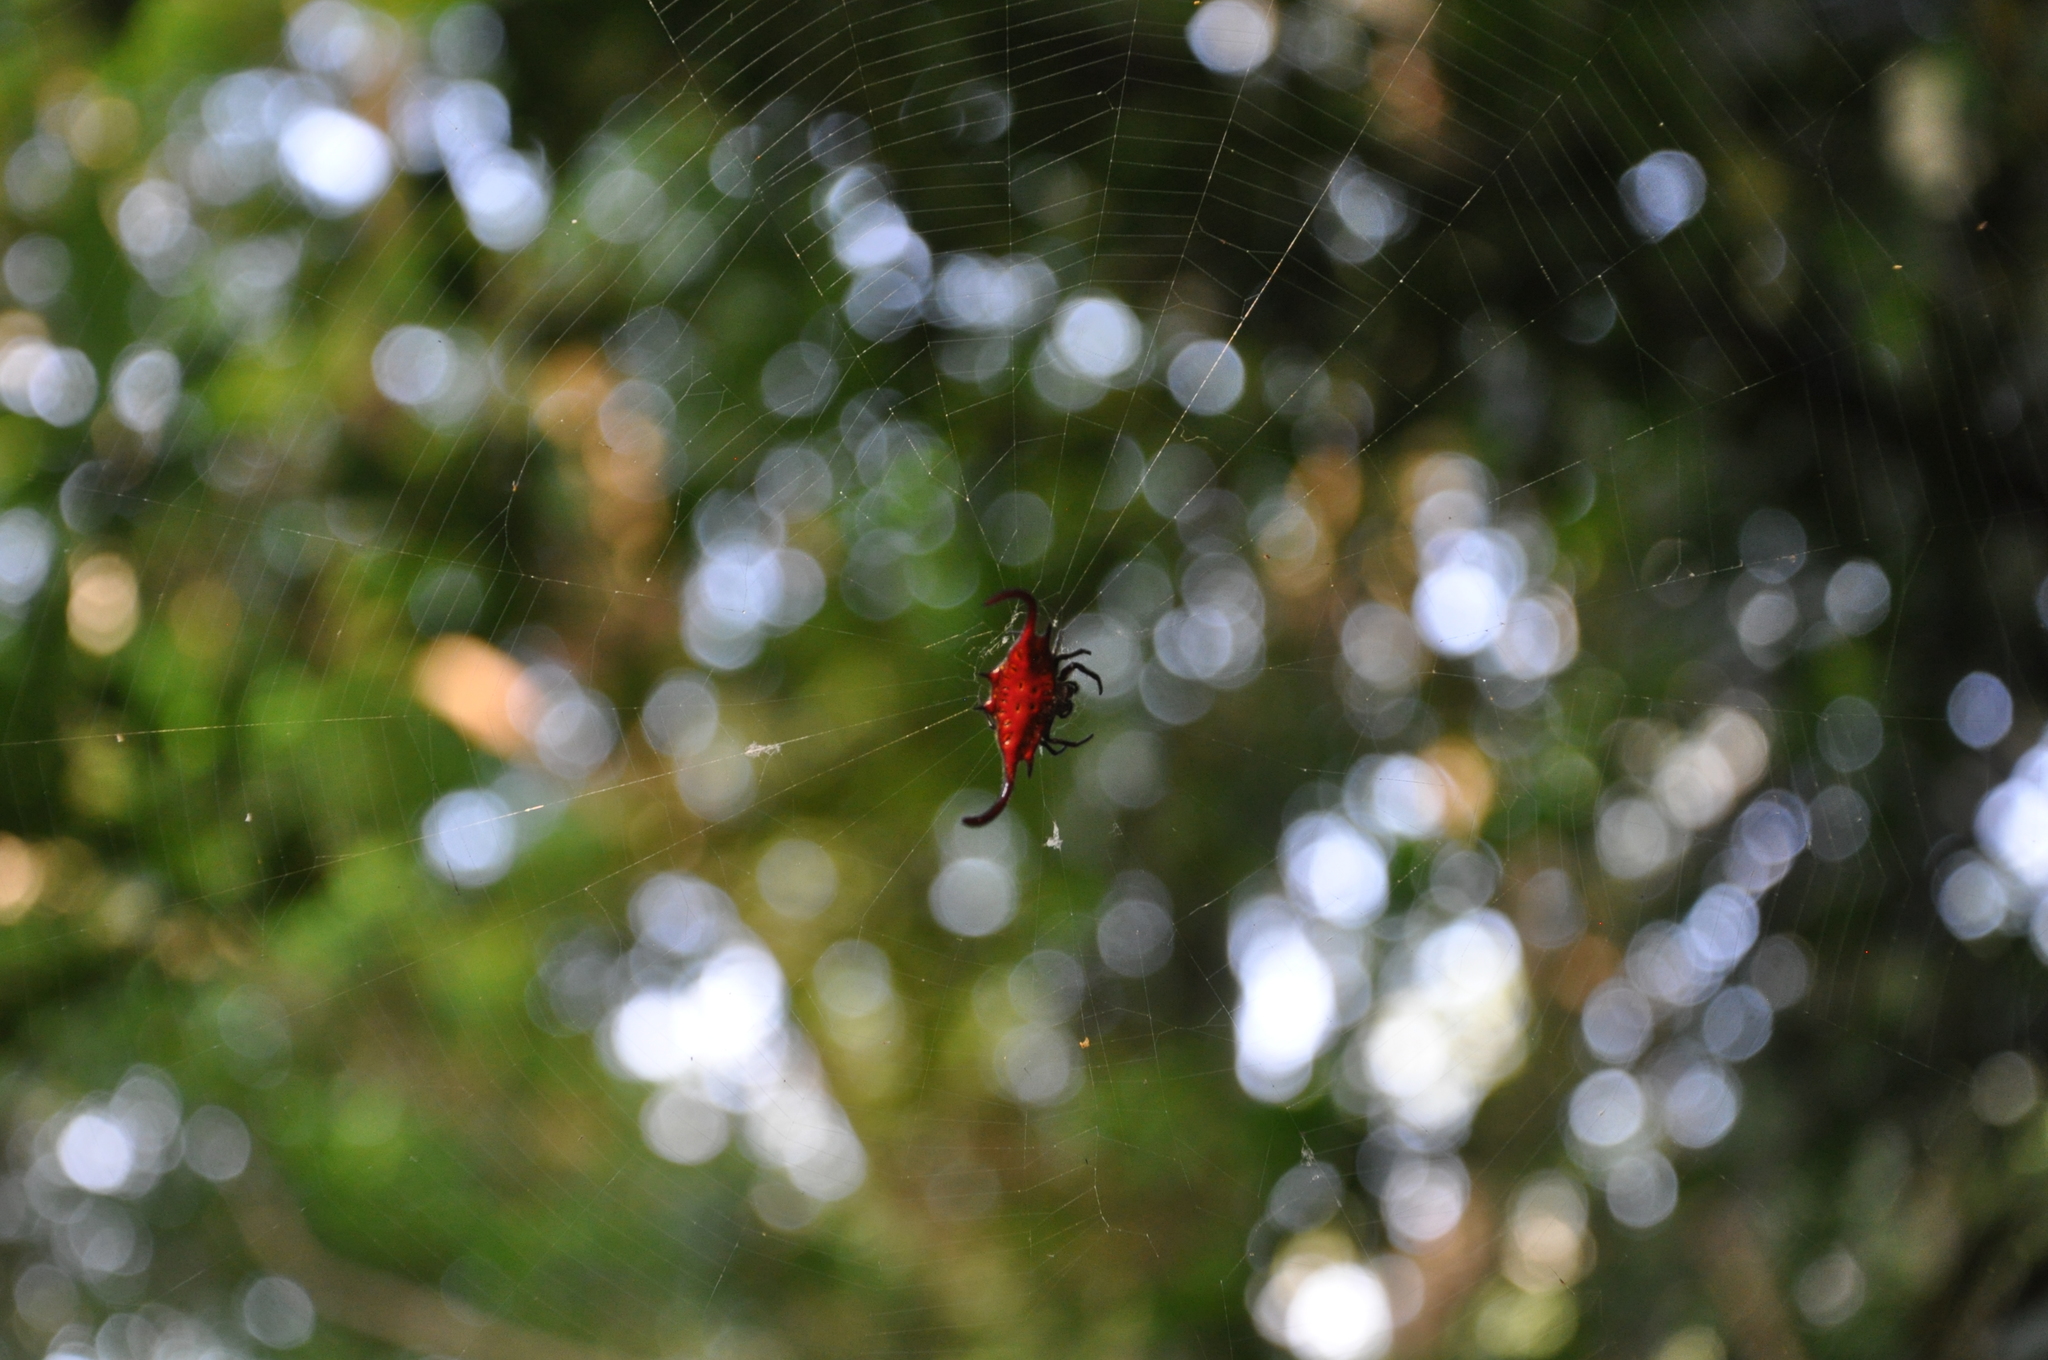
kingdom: Animalia
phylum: Arthropoda
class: Arachnida
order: Araneae
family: Araneidae
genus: Gasteracantha
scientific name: Gasteracantha falcicornis
